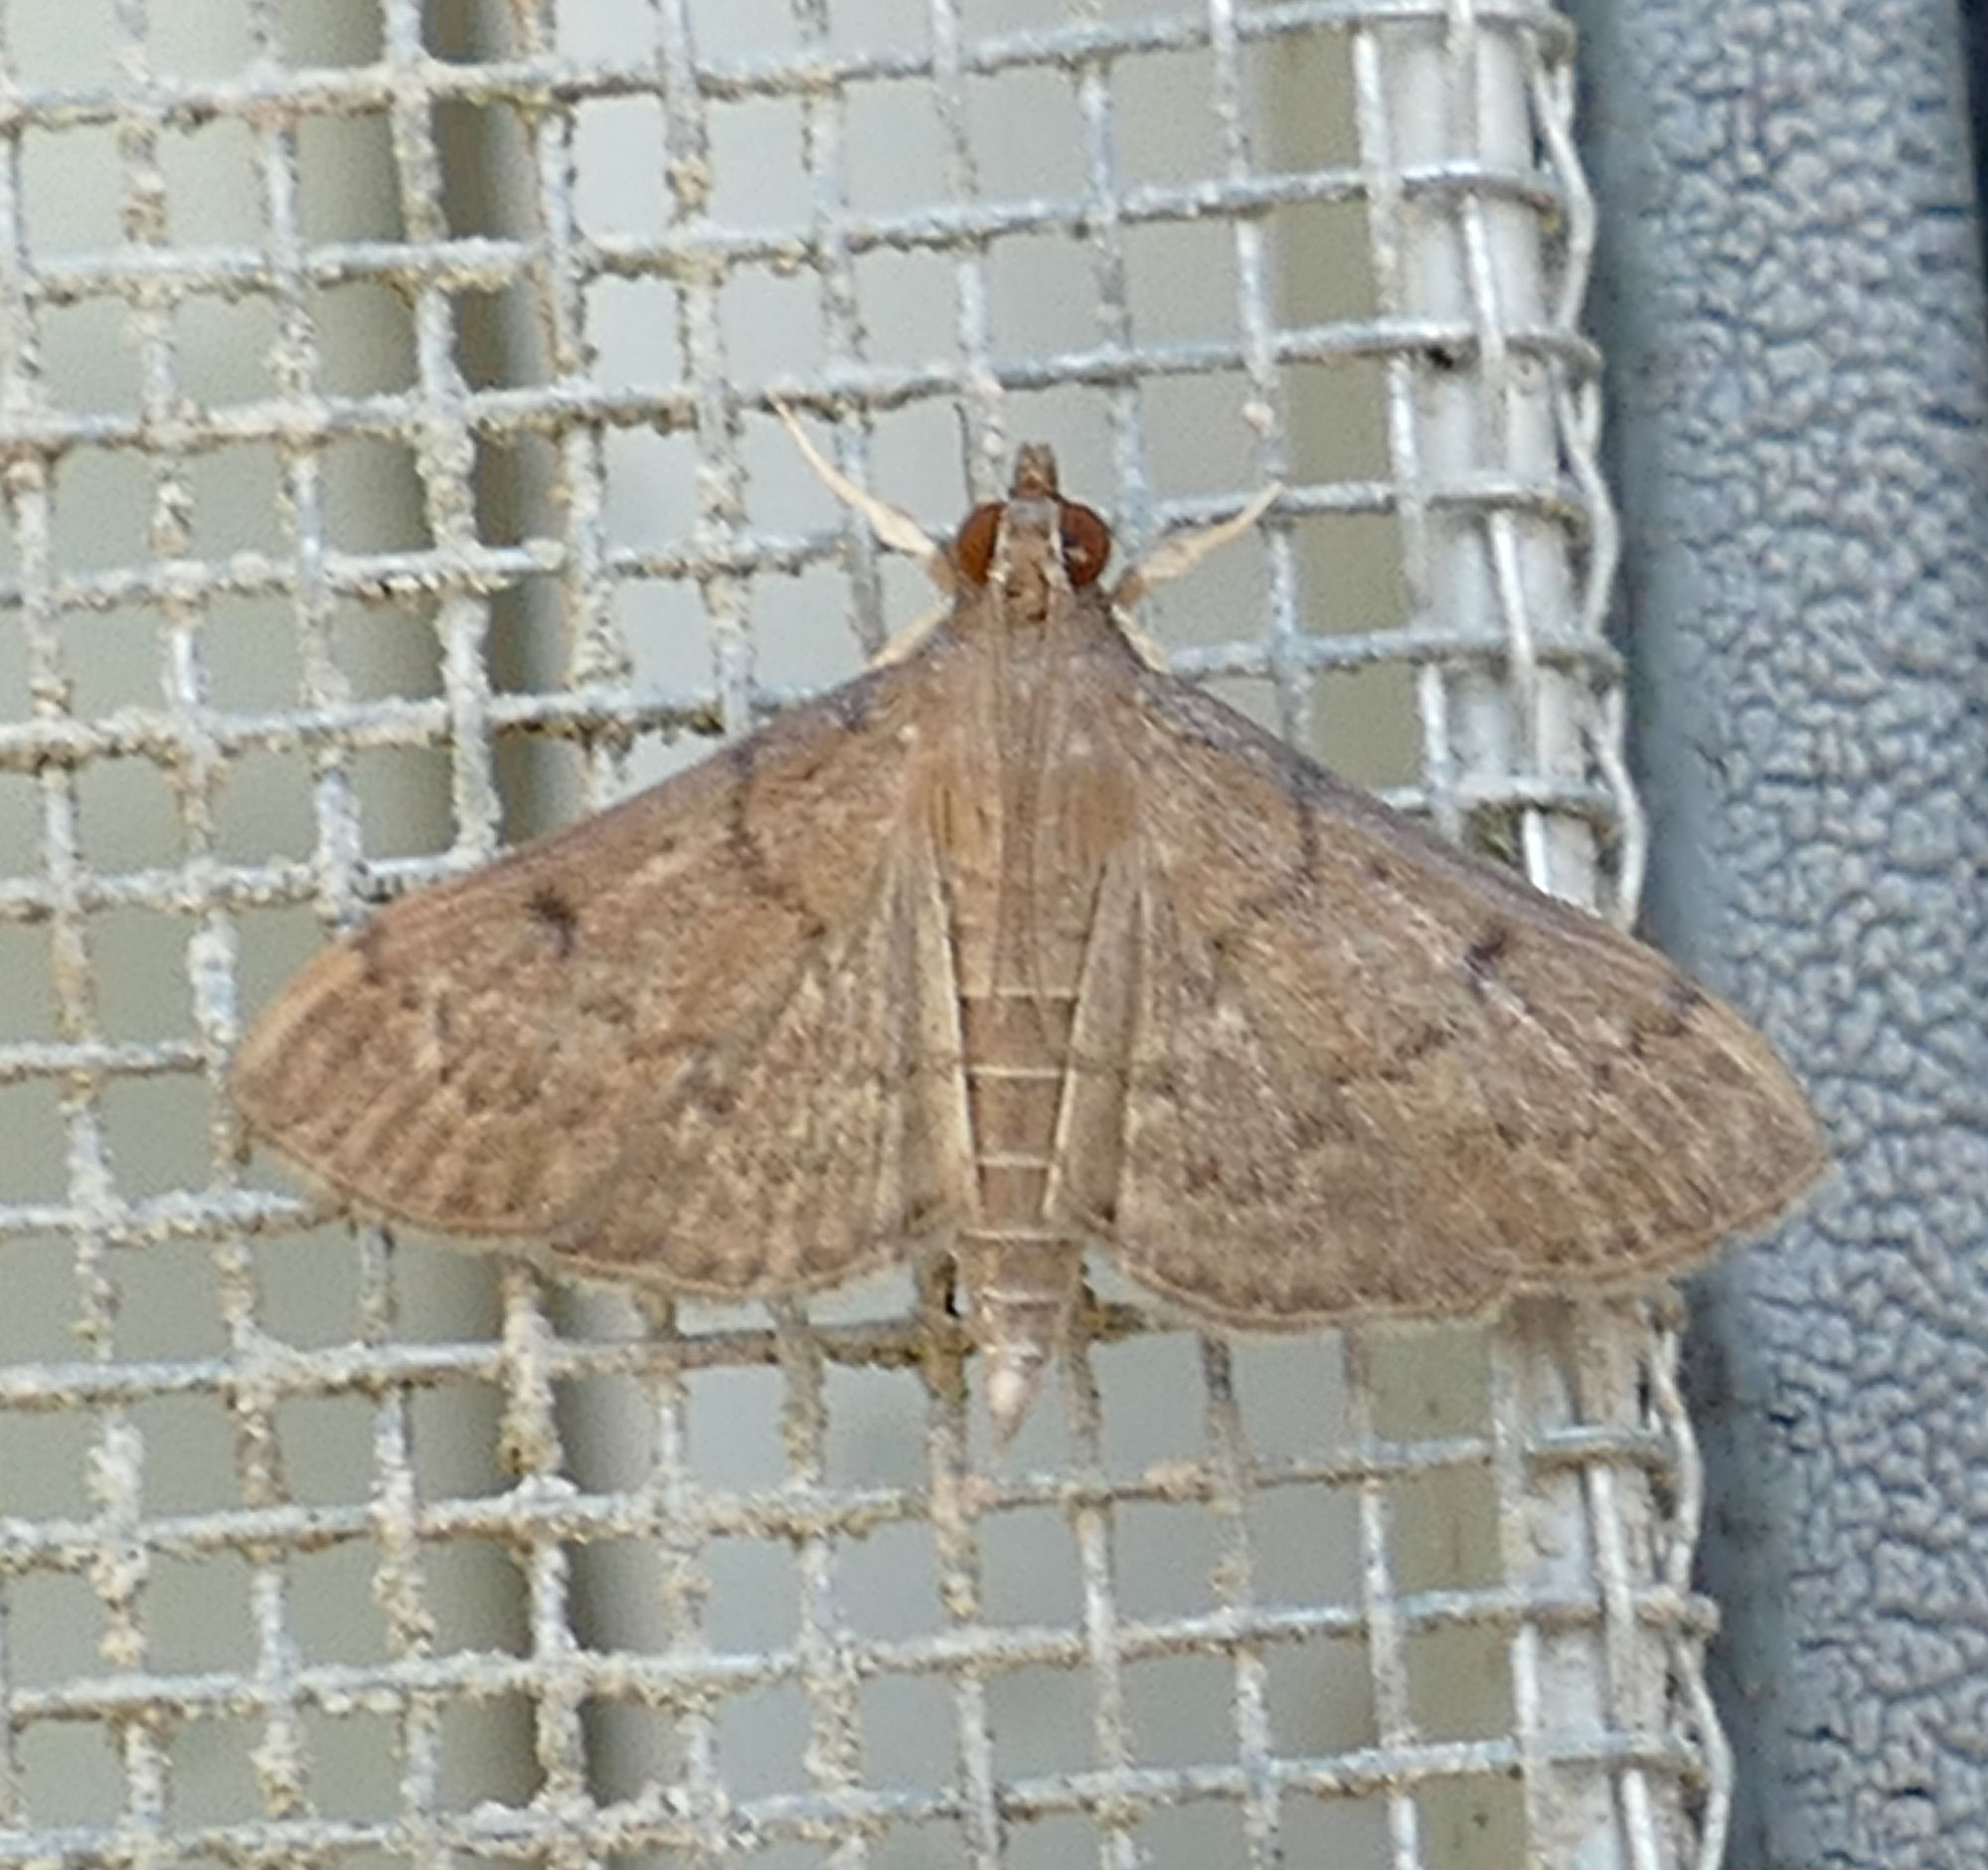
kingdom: Animalia
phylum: Arthropoda
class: Insecta
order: Lepidoptera
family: Crambidae
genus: Herpetogramma
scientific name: Herpetogramma phaeopteralis
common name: Dusky herpetogramma moth
